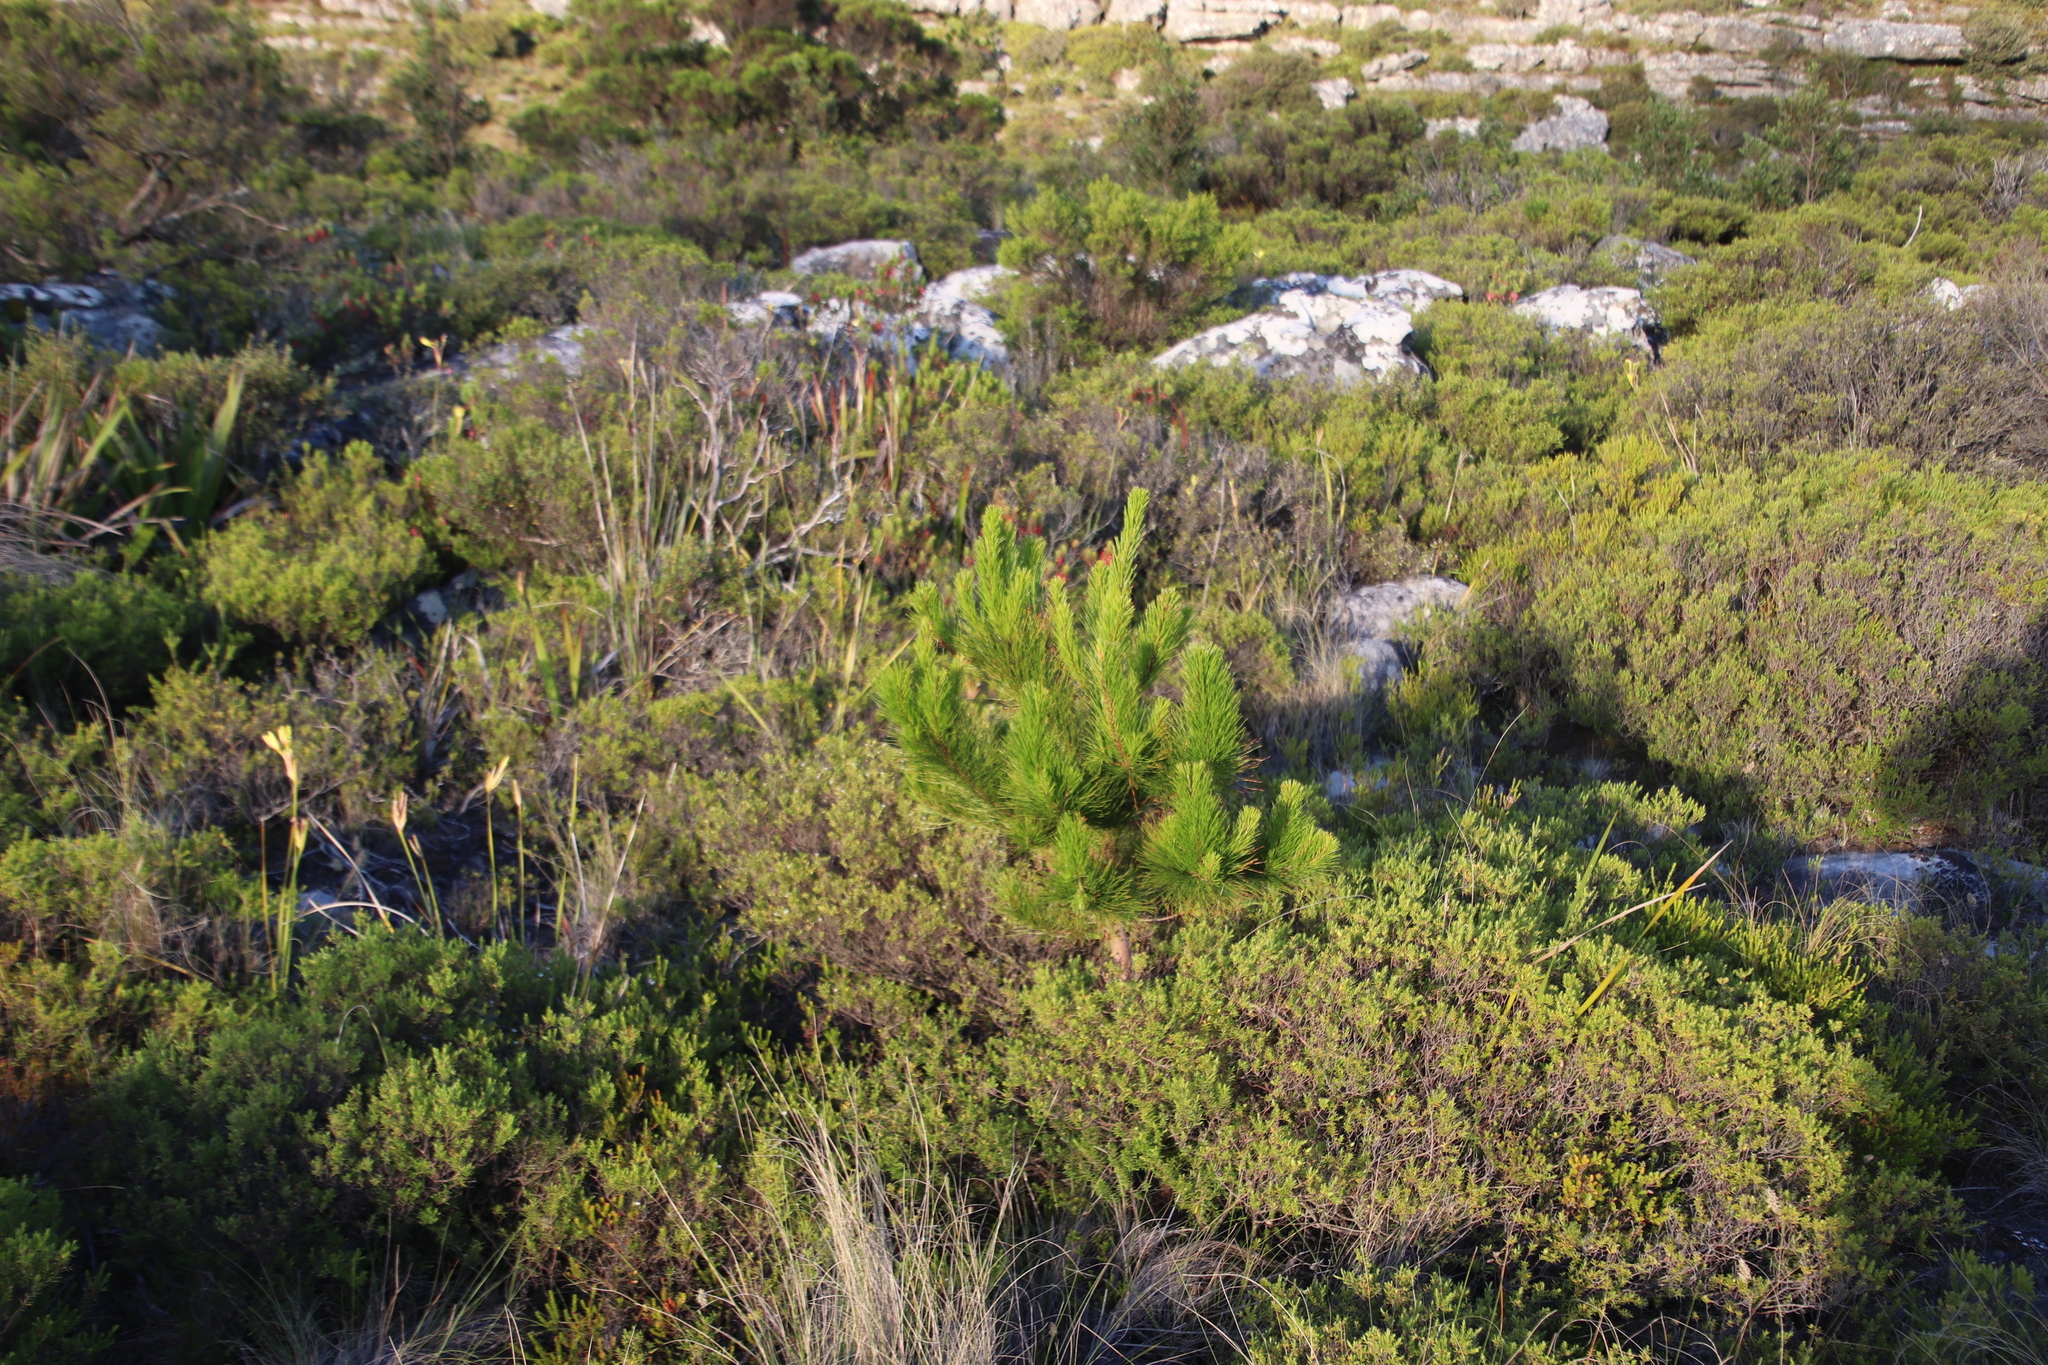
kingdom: Plantae
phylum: Tracheophyta
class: Pinopsida
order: Pinales
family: Pinaceae
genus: Pinus
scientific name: Pinus radiata
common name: Monterey pine
